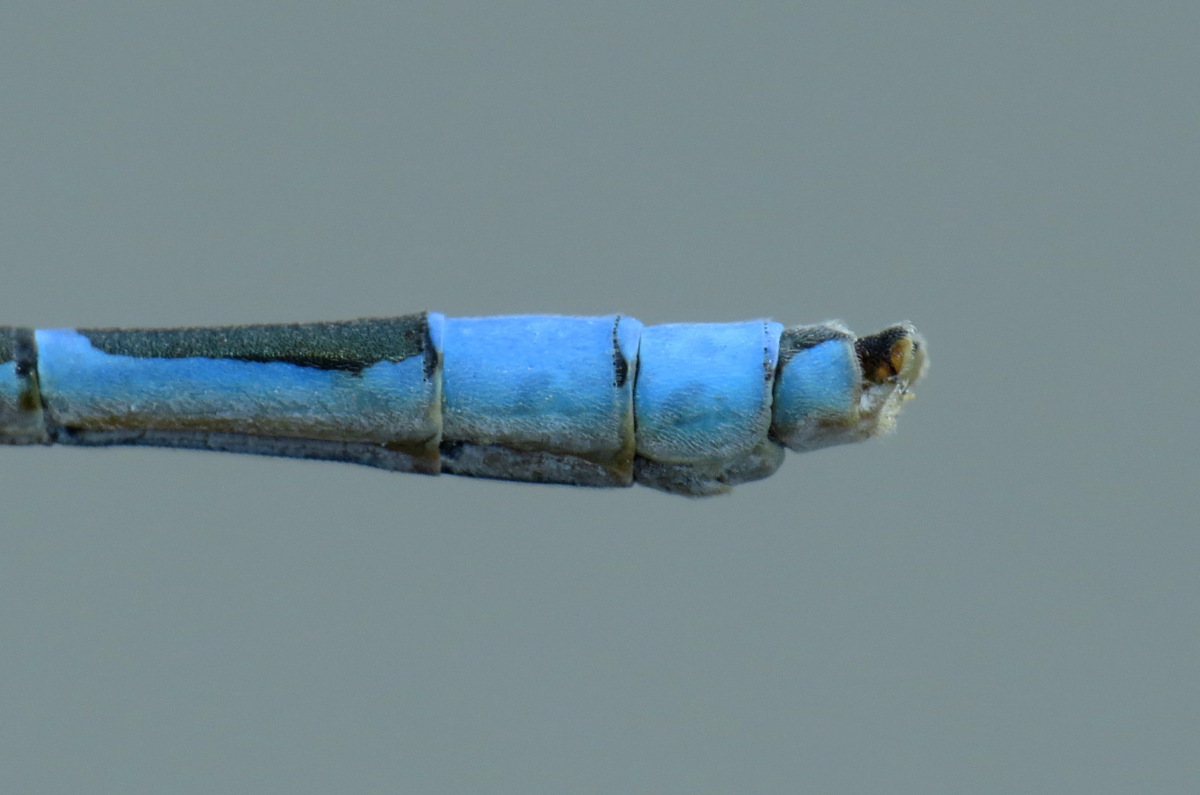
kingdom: Animalia
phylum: Arthropoda
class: Insecta
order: Odonata
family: Coenagrionidae
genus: Enallagma
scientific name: Enallagma civile
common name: Damselfly
